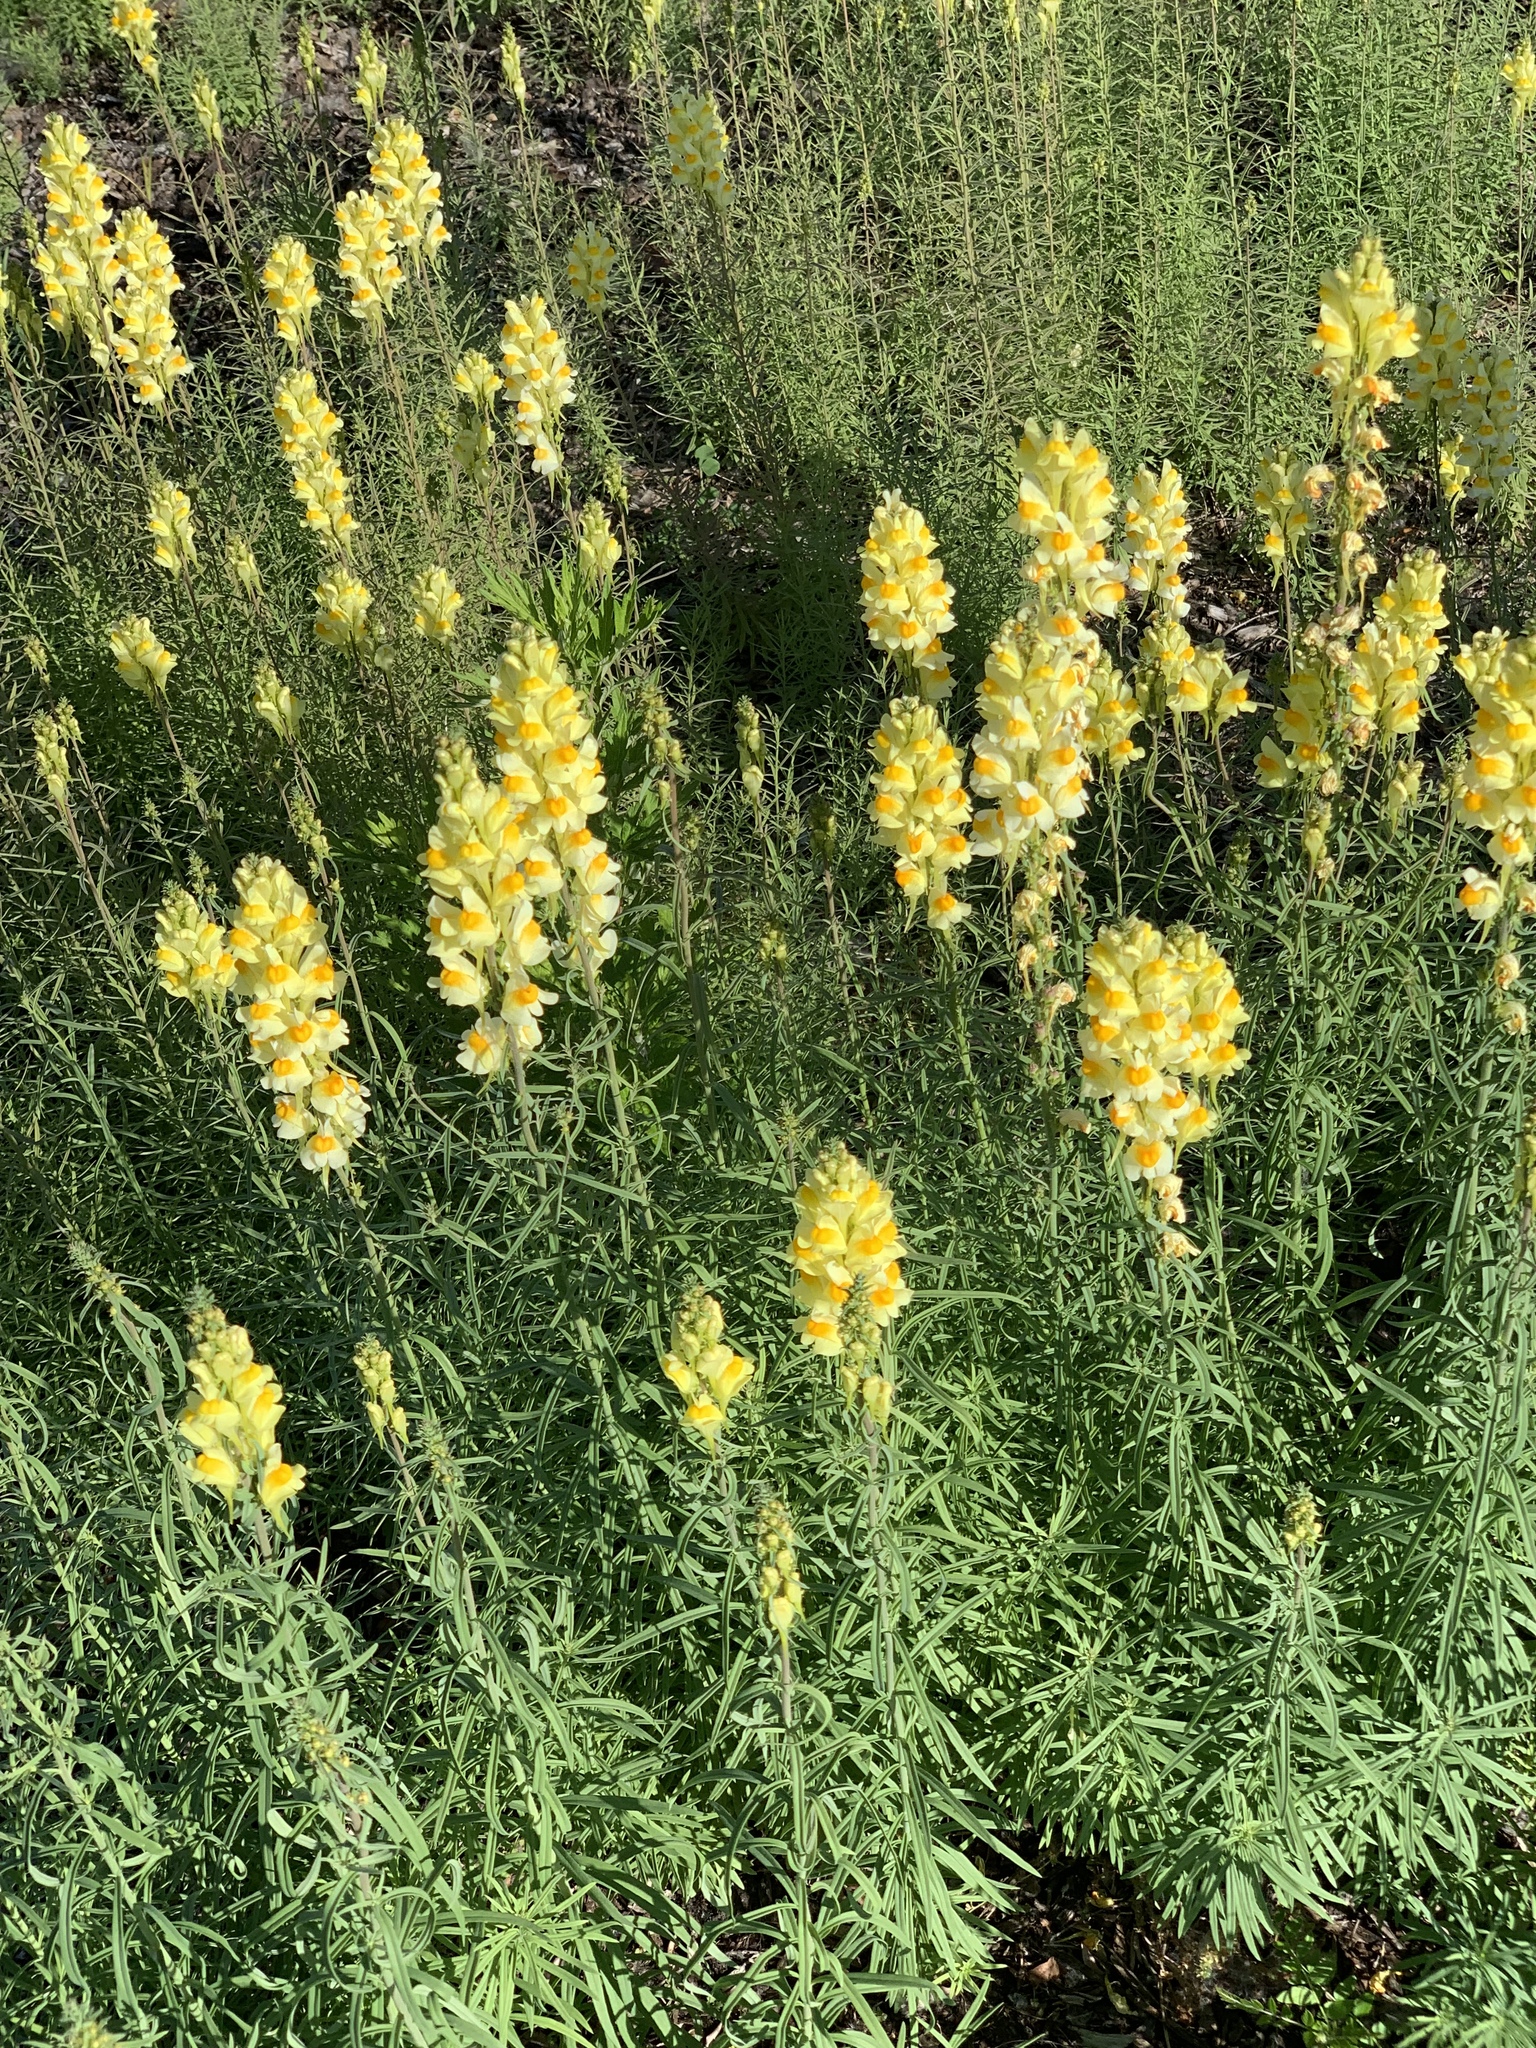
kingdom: Plantae
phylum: Tracheophyta
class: Magnoliopsida
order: Lamiales
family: Plantaginaceae
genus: Linaria
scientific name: Linaria vulgaris
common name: Butter and eggs
